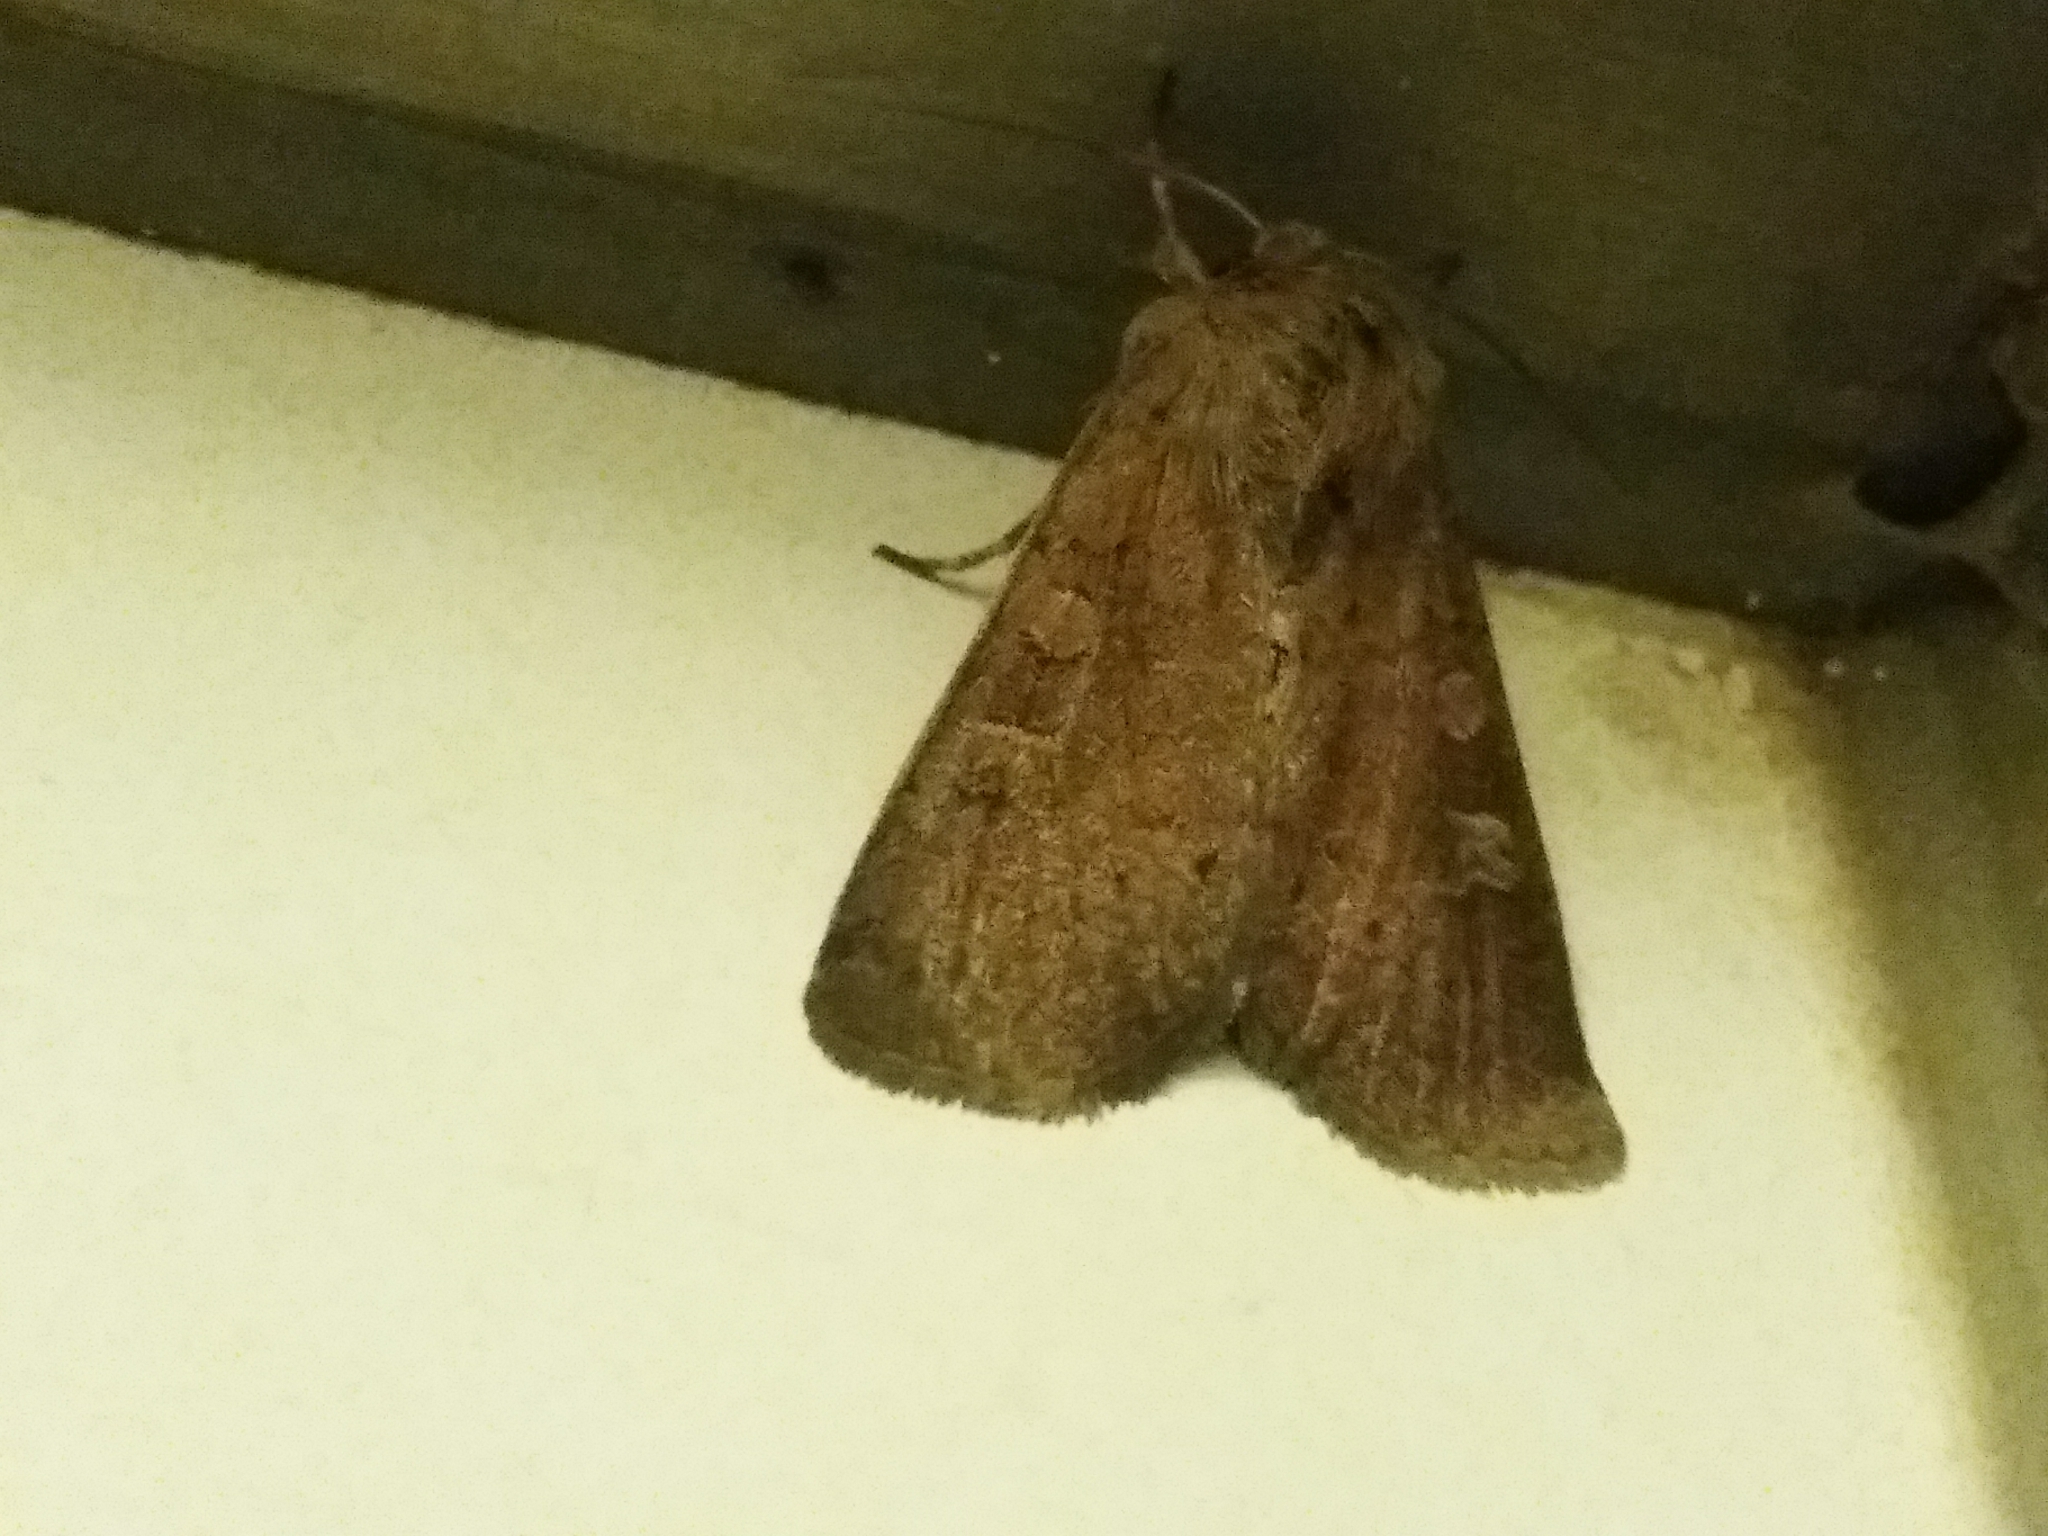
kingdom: Animalia
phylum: Arthropoda
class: Insecta
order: Lepidoptera
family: Noctuidae
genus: Xestia
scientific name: Xestia xanthographa
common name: Square-spot rustic
